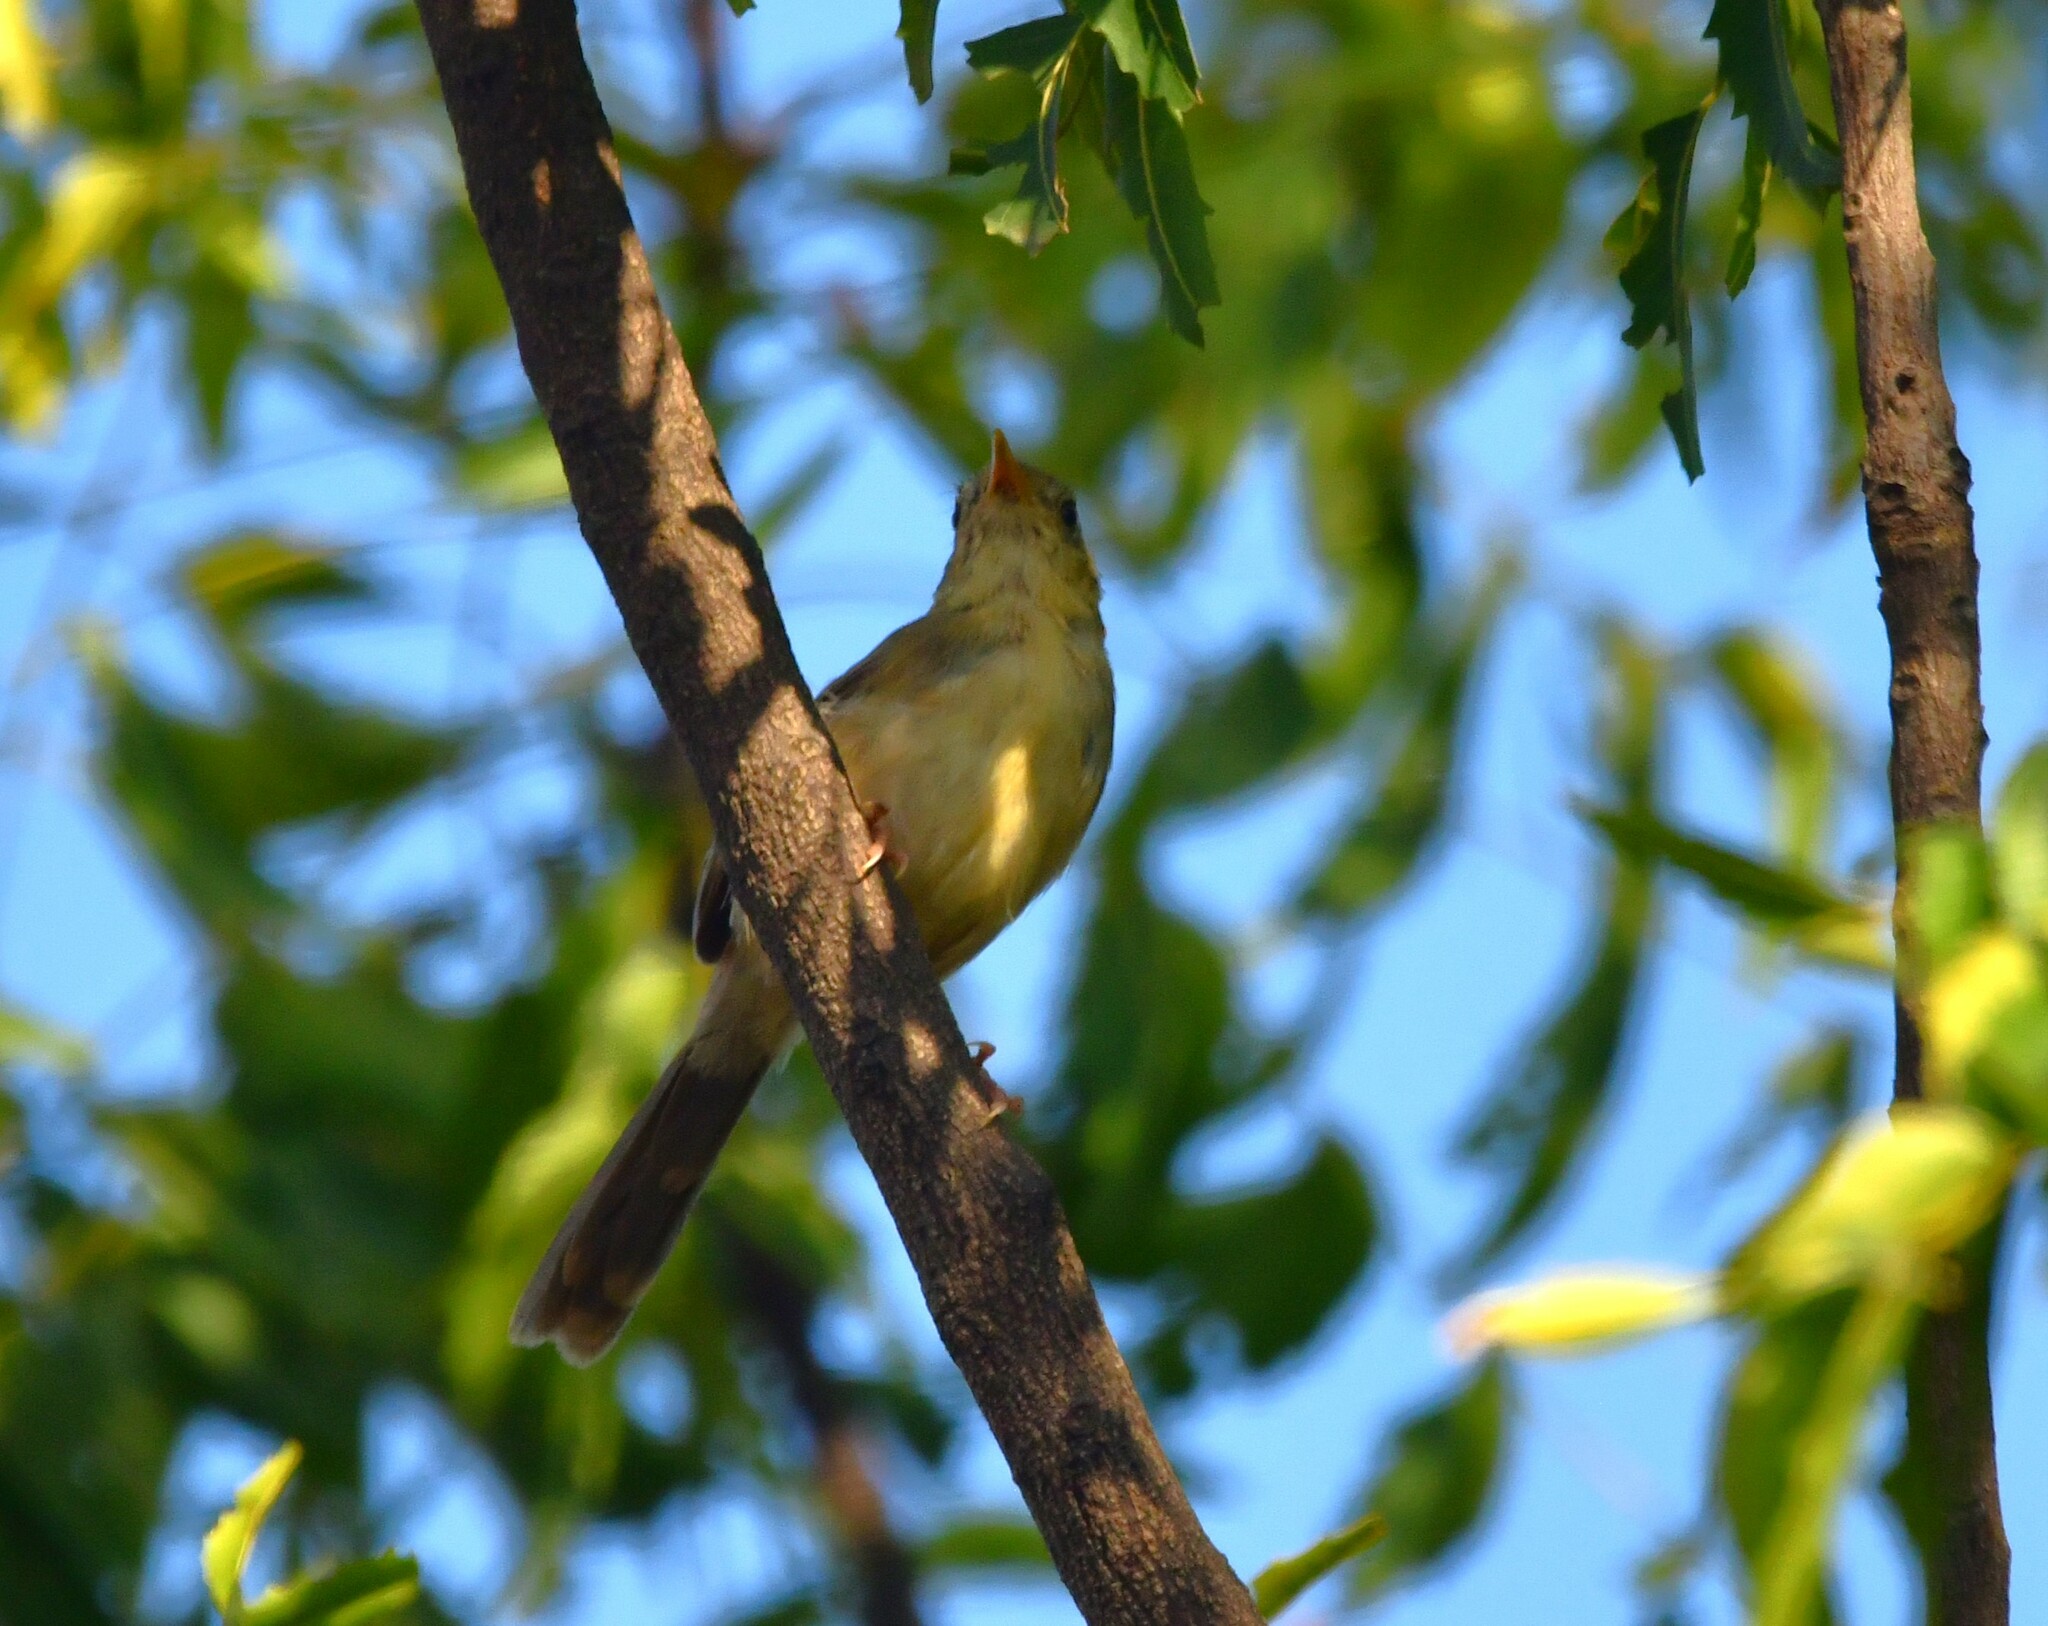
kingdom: Animalia
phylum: Chordata
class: Aves
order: Passeriformes
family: Cisticolidae
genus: Orthotomus
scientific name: Orthotomus sutorius
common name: Common tailorbird
